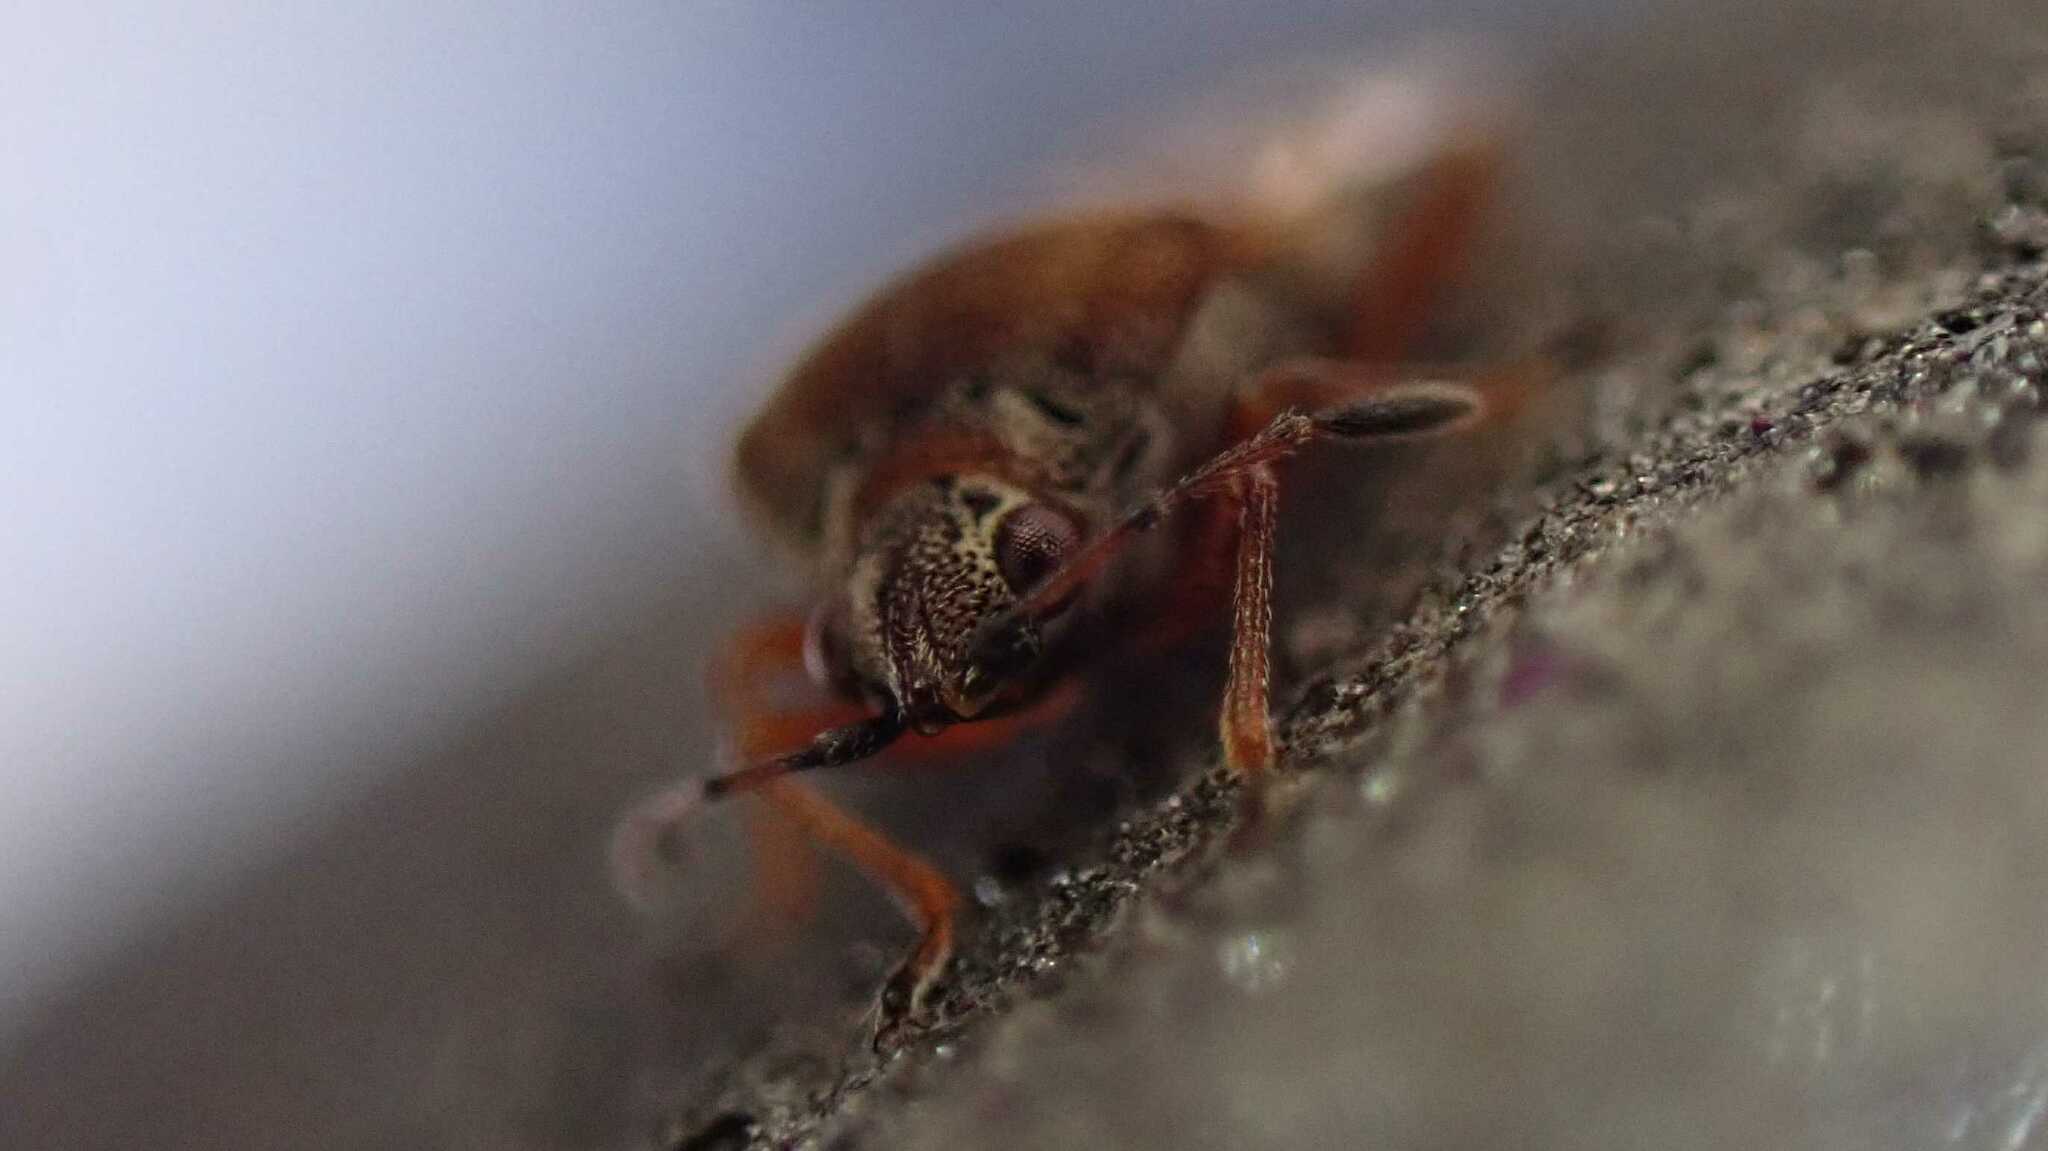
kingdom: Animalia
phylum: Arthropoda
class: Insecta
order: Hemiptera
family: Lygaeidae
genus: Kleidocerys
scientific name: Kleidocerys resedae
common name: Birch catkin bug
